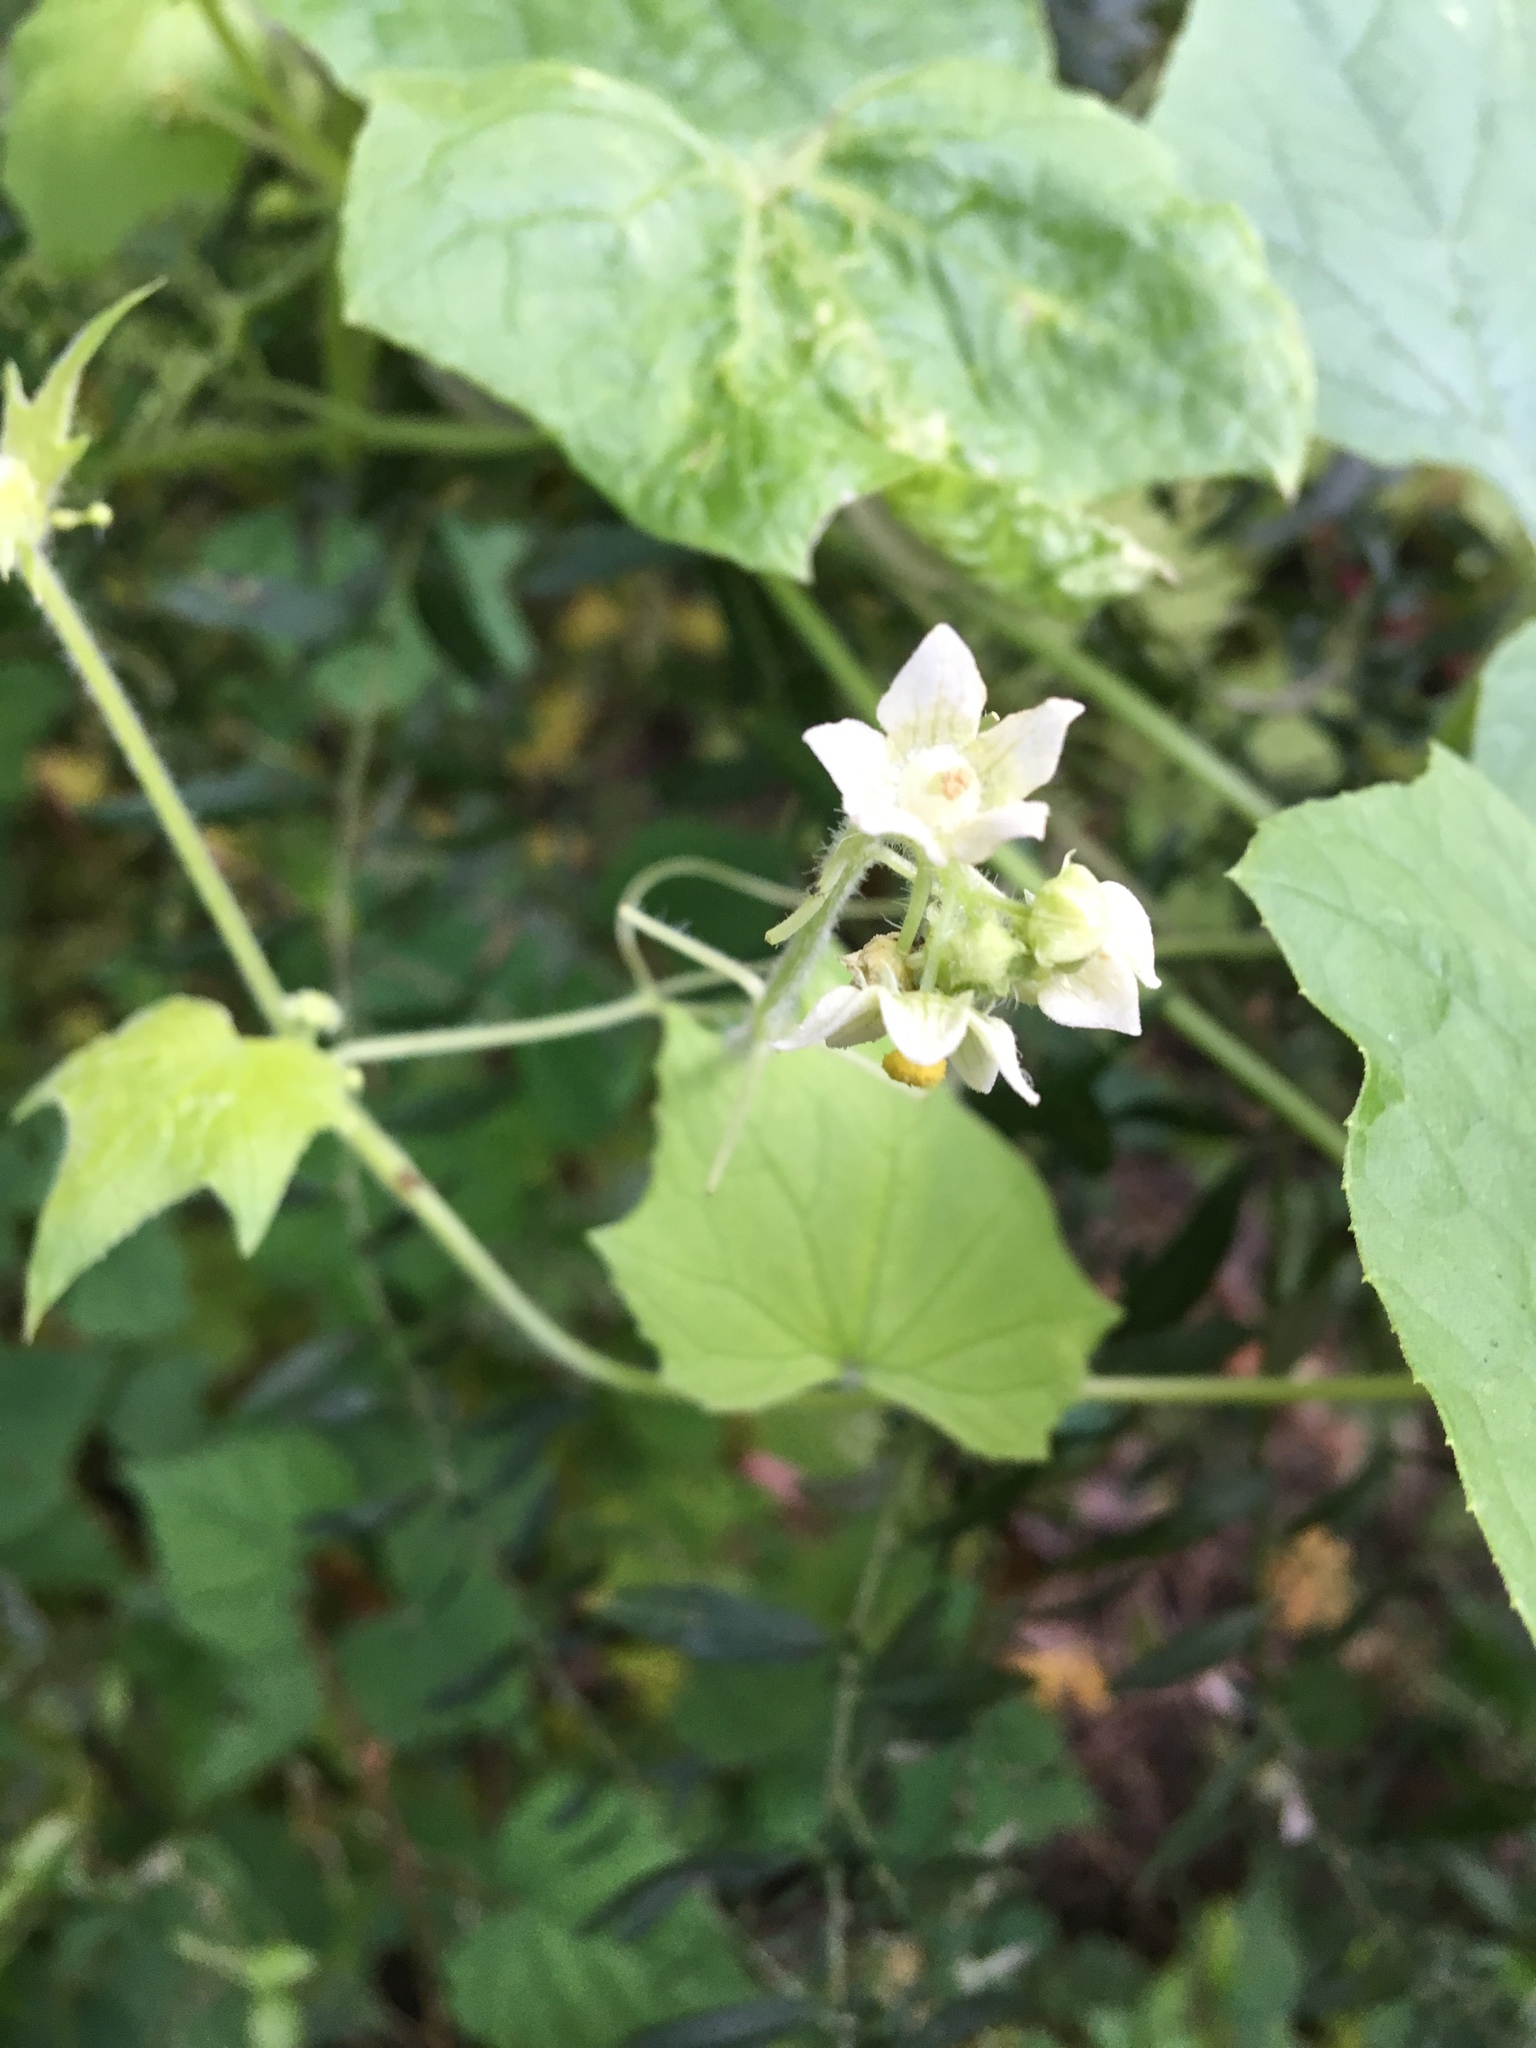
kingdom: Plantae
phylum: Tracheophyta
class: Magnoliopsida
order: Cucurbitales
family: Cucurbitaceae
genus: Sicyos
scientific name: Sicyos angulatus
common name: Angled burr cucumber
